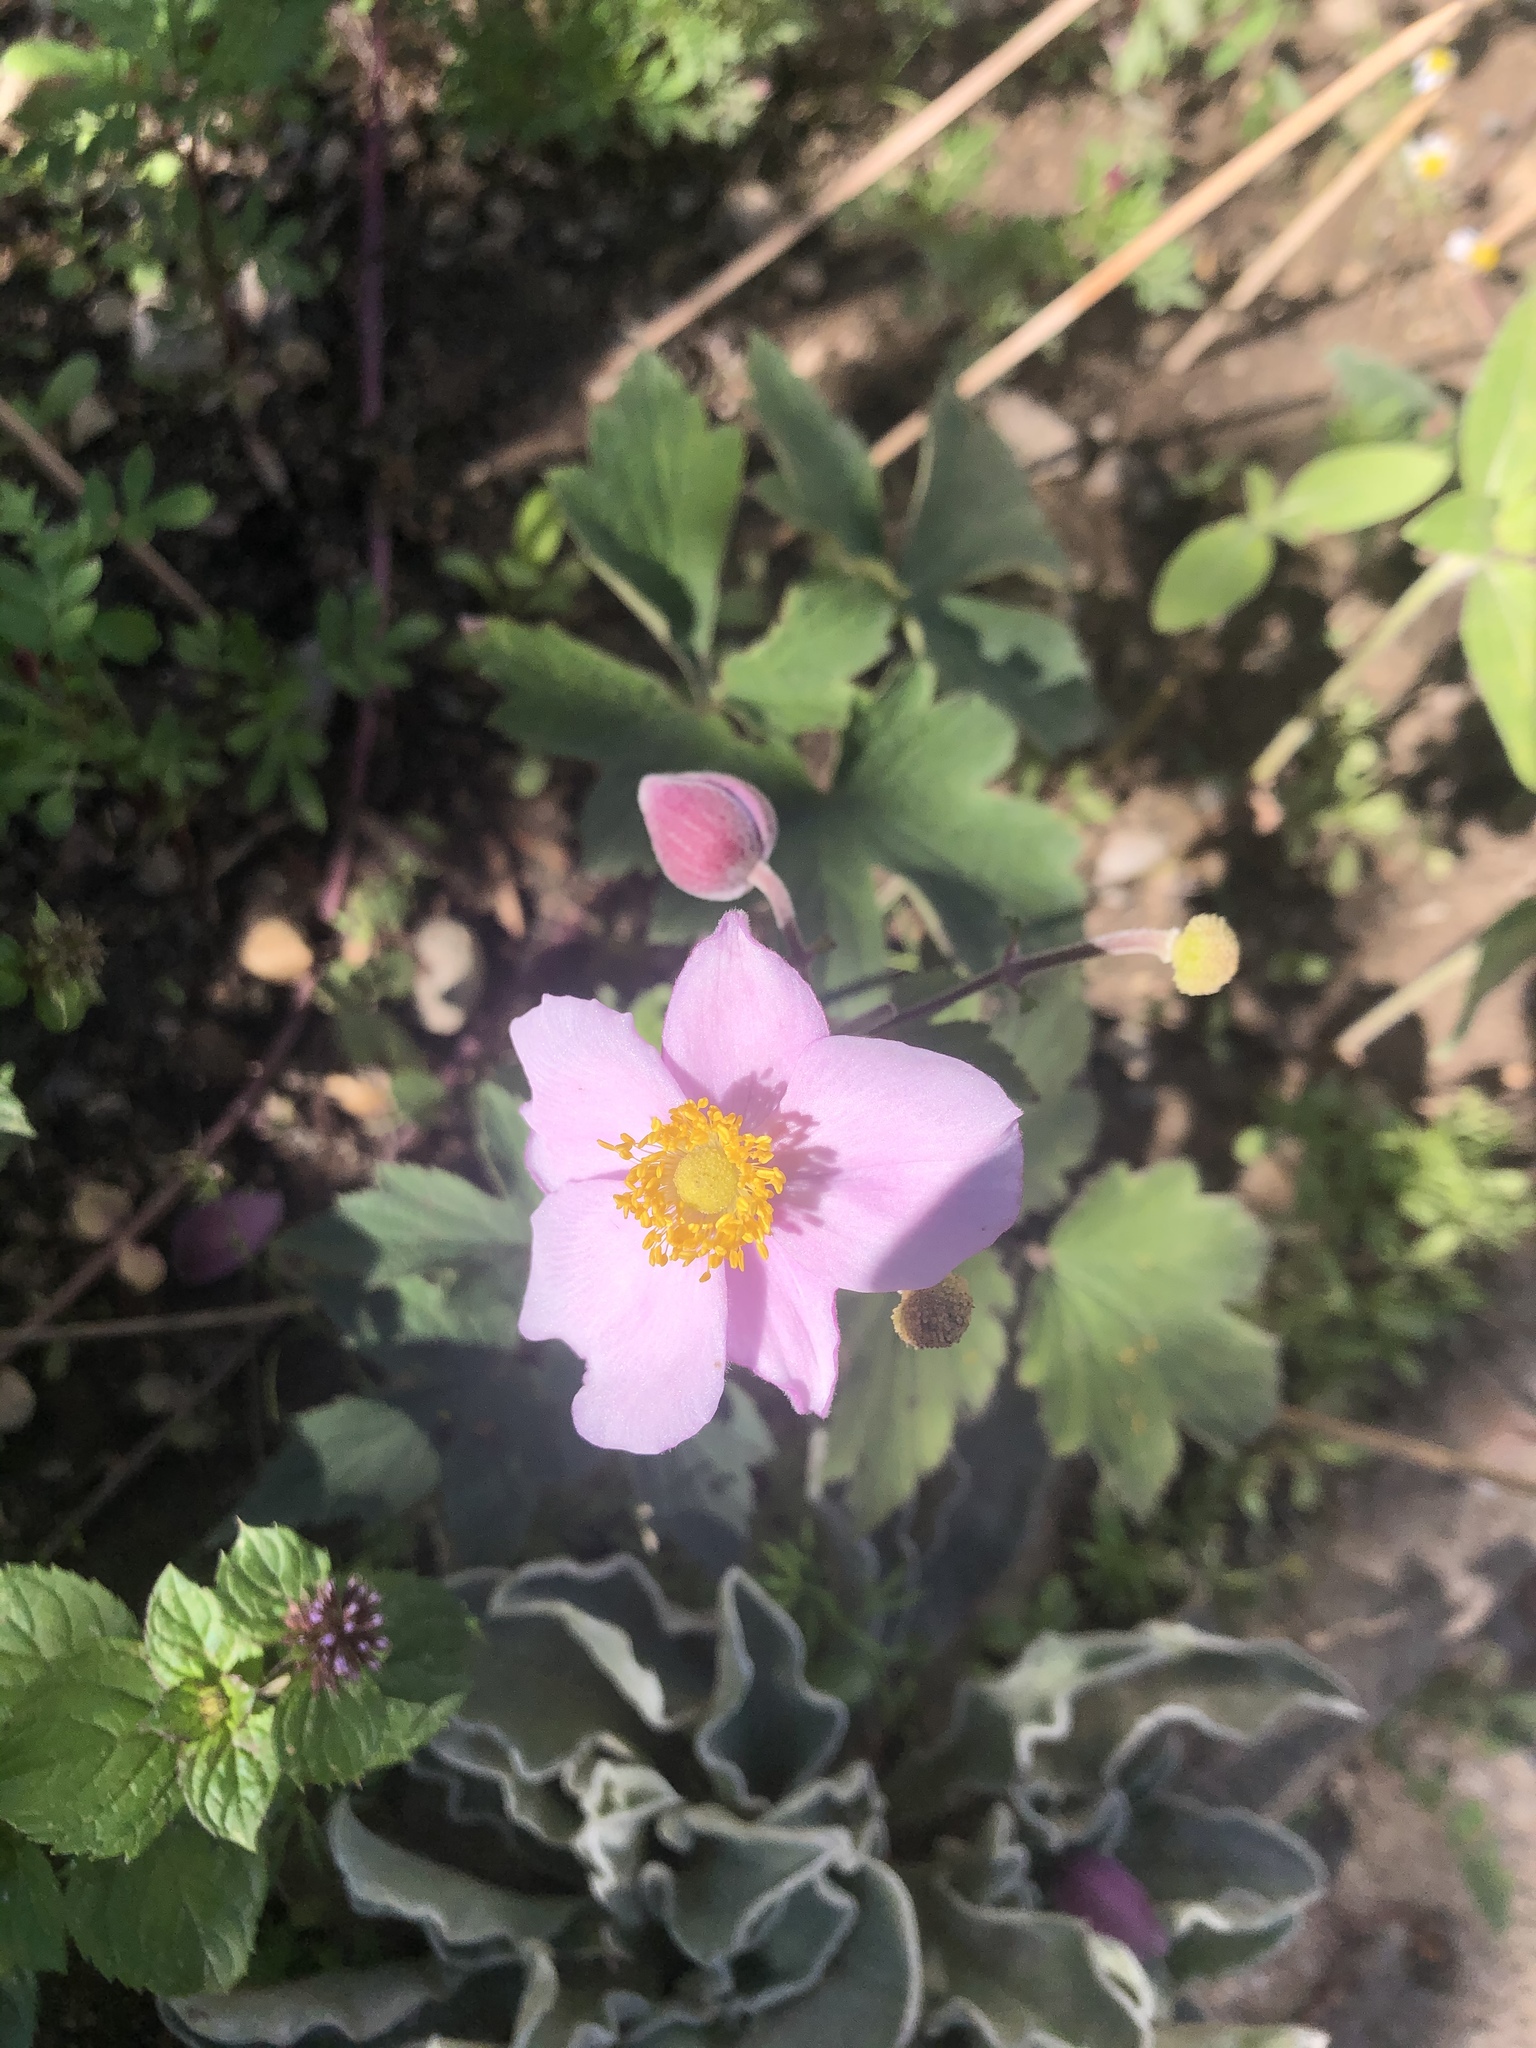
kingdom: Plantae
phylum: Tracheophyta
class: Magnoliopsida
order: Ranunculales
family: Ranunculaceae
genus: Eriocapitella
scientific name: Eriocapitella hupehensis
